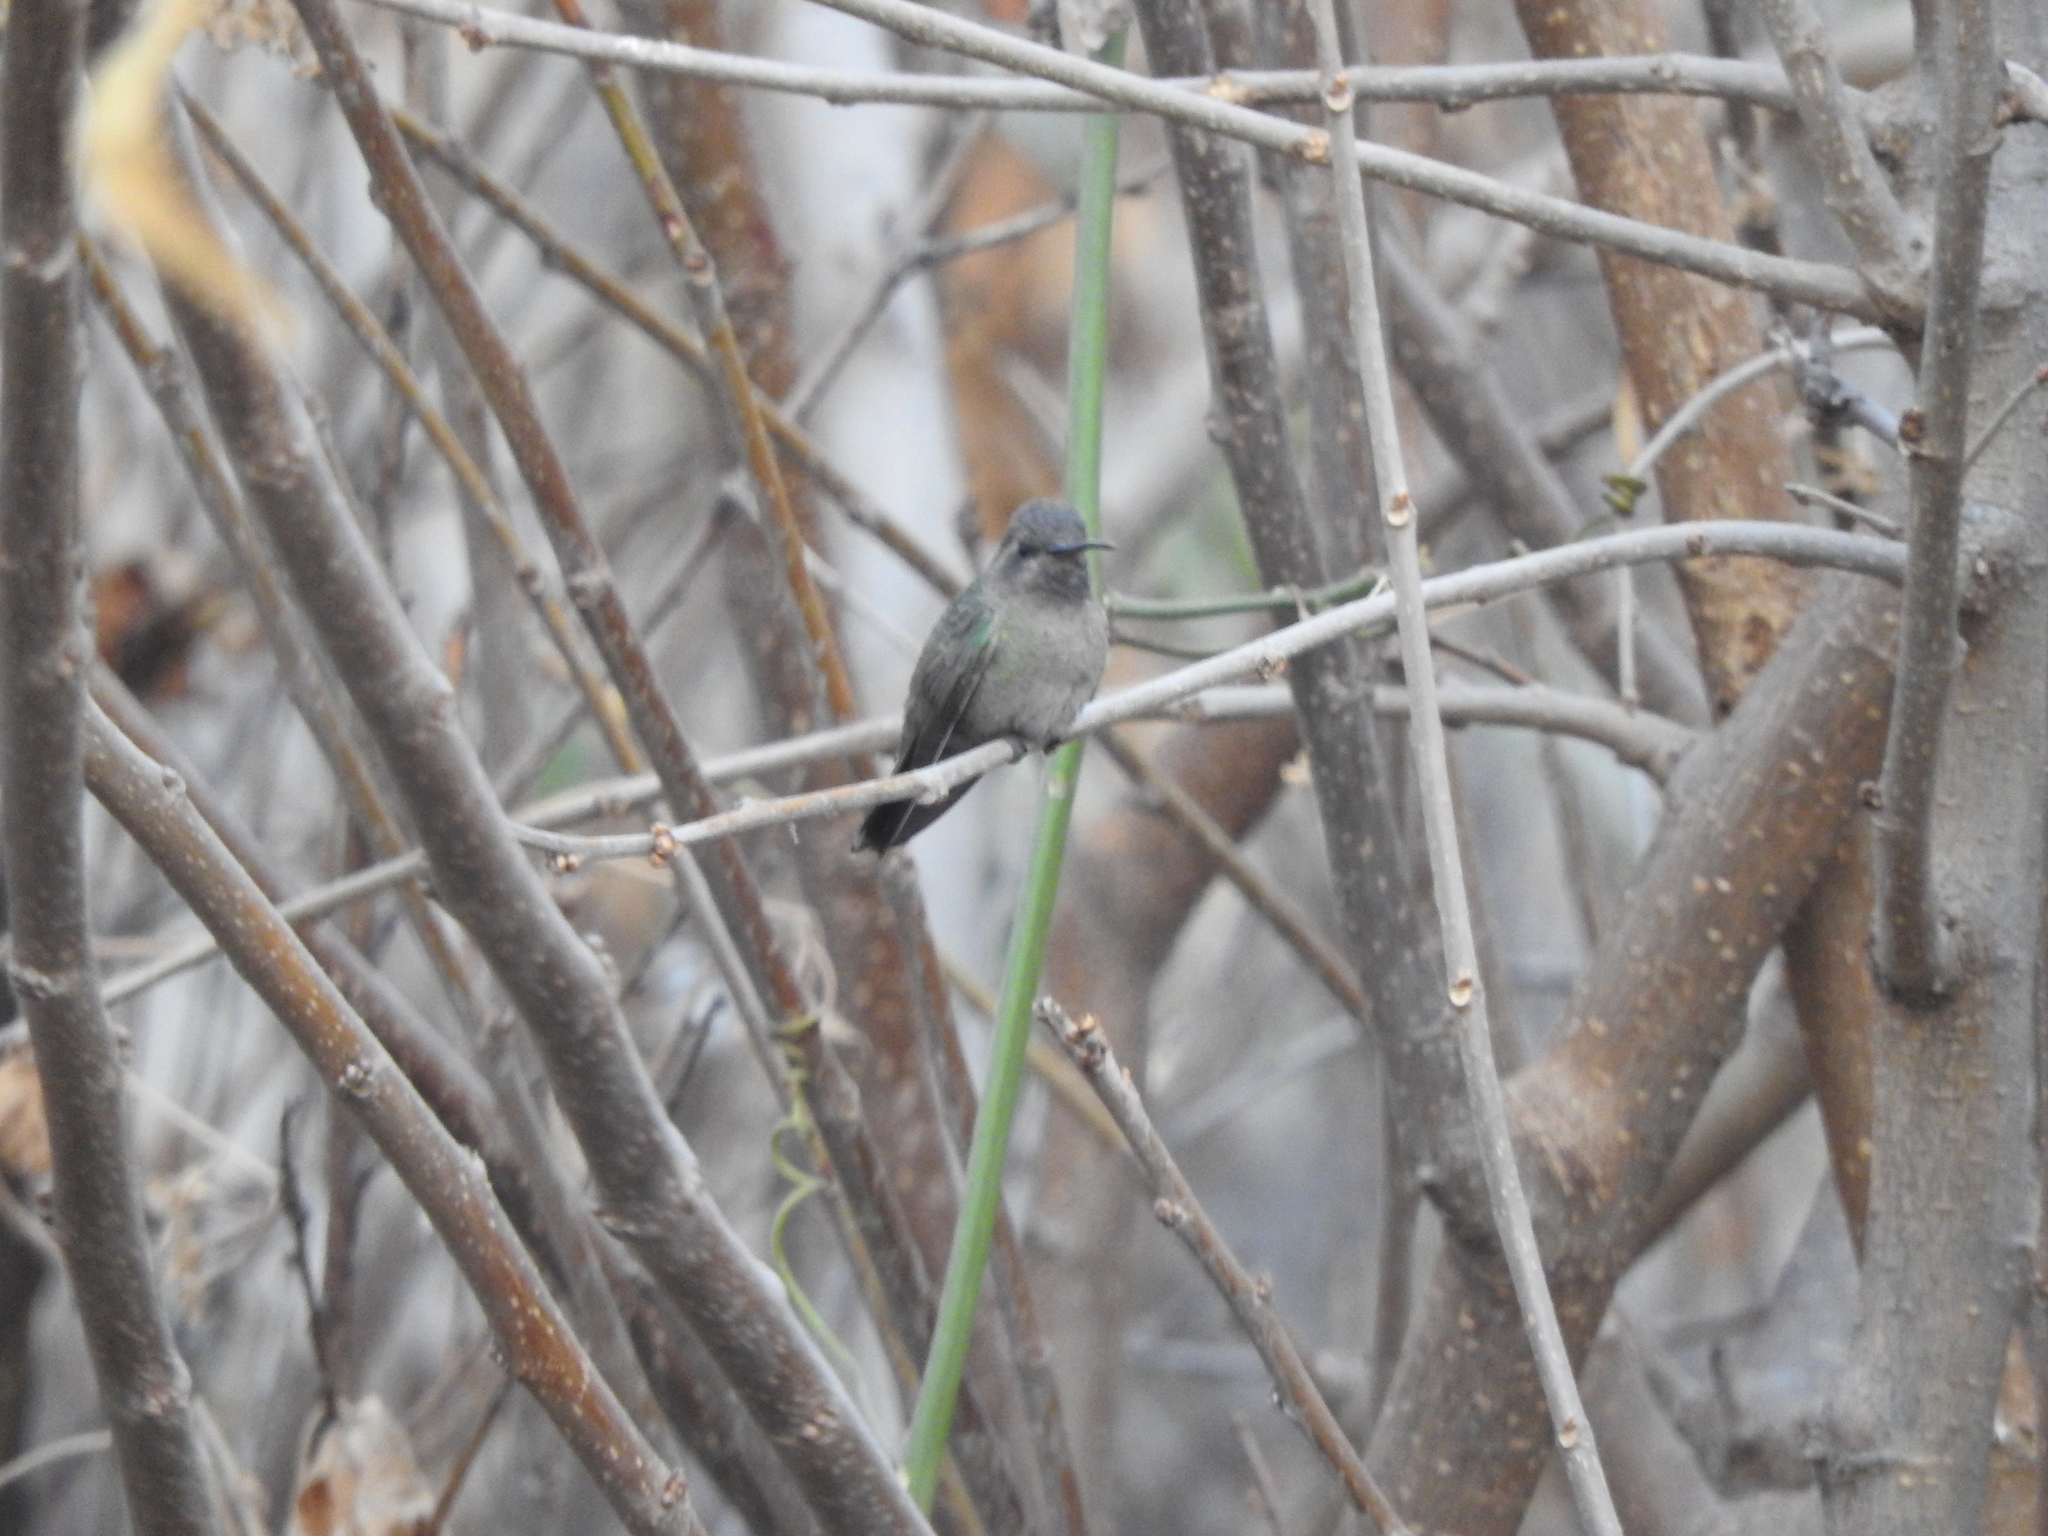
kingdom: Animalia
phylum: Chordata
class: Aves
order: Apodiformes
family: Trochilidae
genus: Cynanthus
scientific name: Cynanthus latirostris
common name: Broad-billed hummingbird
